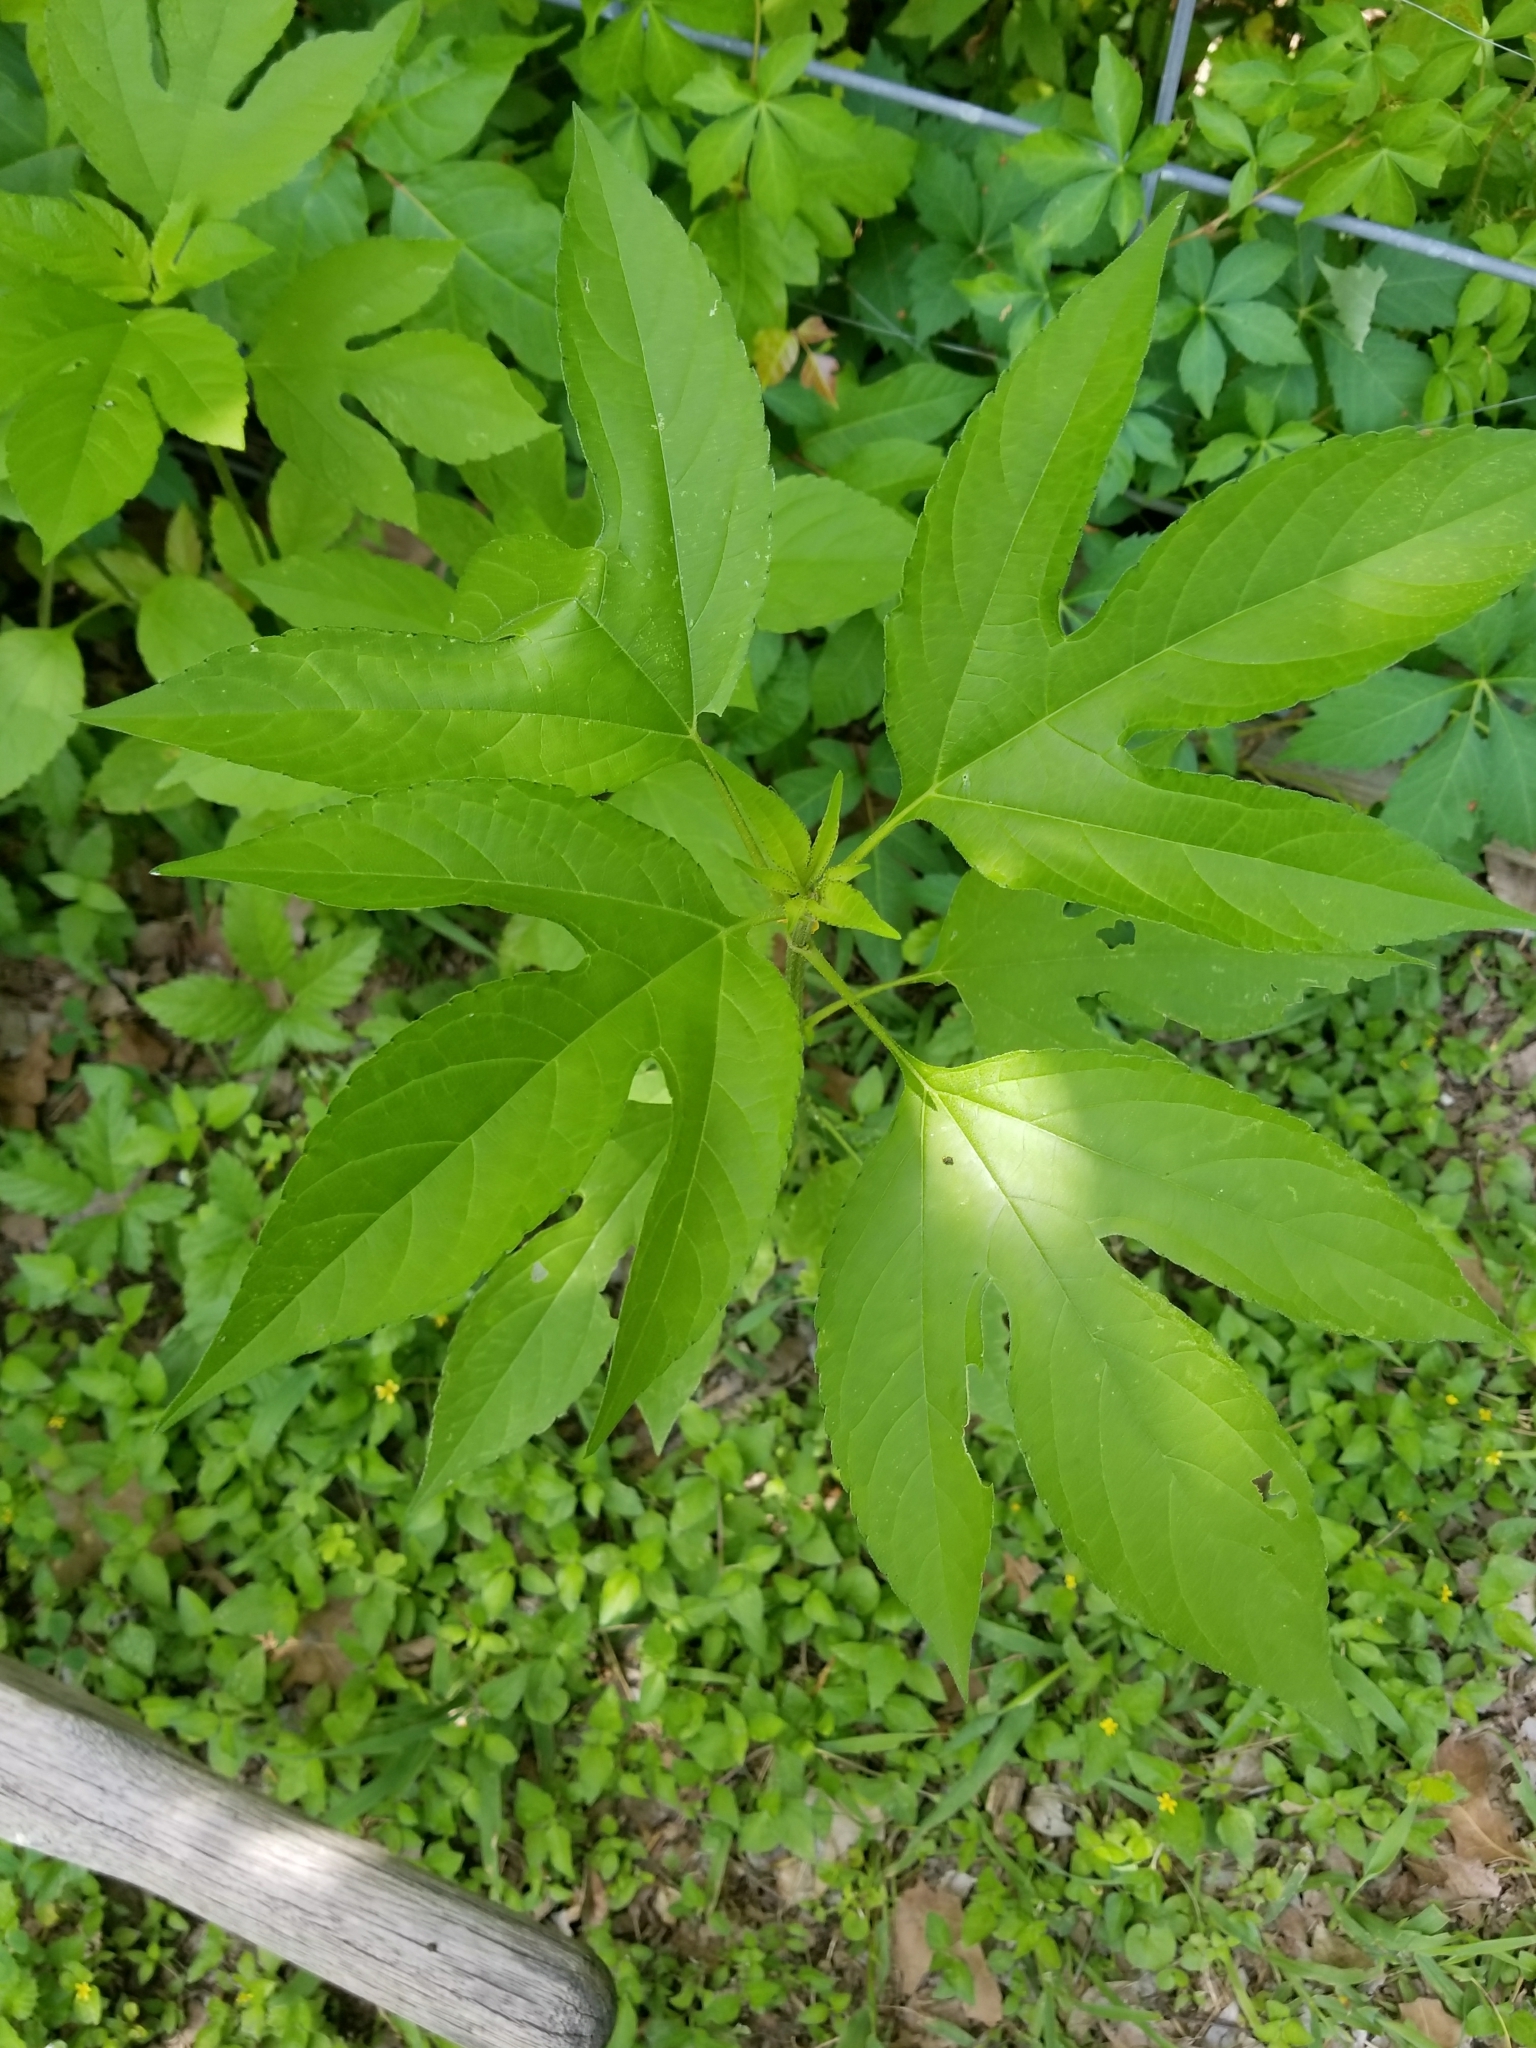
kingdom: Plantae
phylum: Tracheophyta
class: Magnoliopsida
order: Asterales
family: Asteraceae
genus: Ambrosia
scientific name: Ambrosia trifida
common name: Giant ragweed
